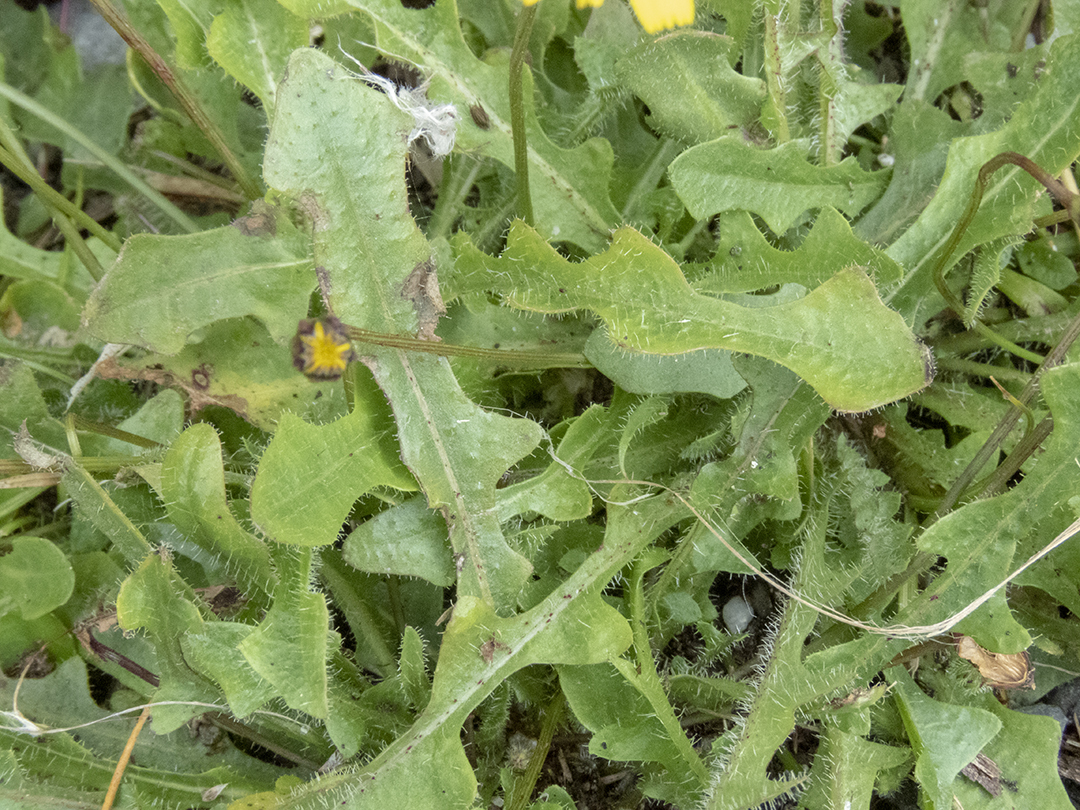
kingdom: Plantae
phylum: Tracheophyta
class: Magnoliopsida
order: Asterales
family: Asteraceae
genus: Hypochaeris
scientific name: Hypochaeris radicata
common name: Flatweed
